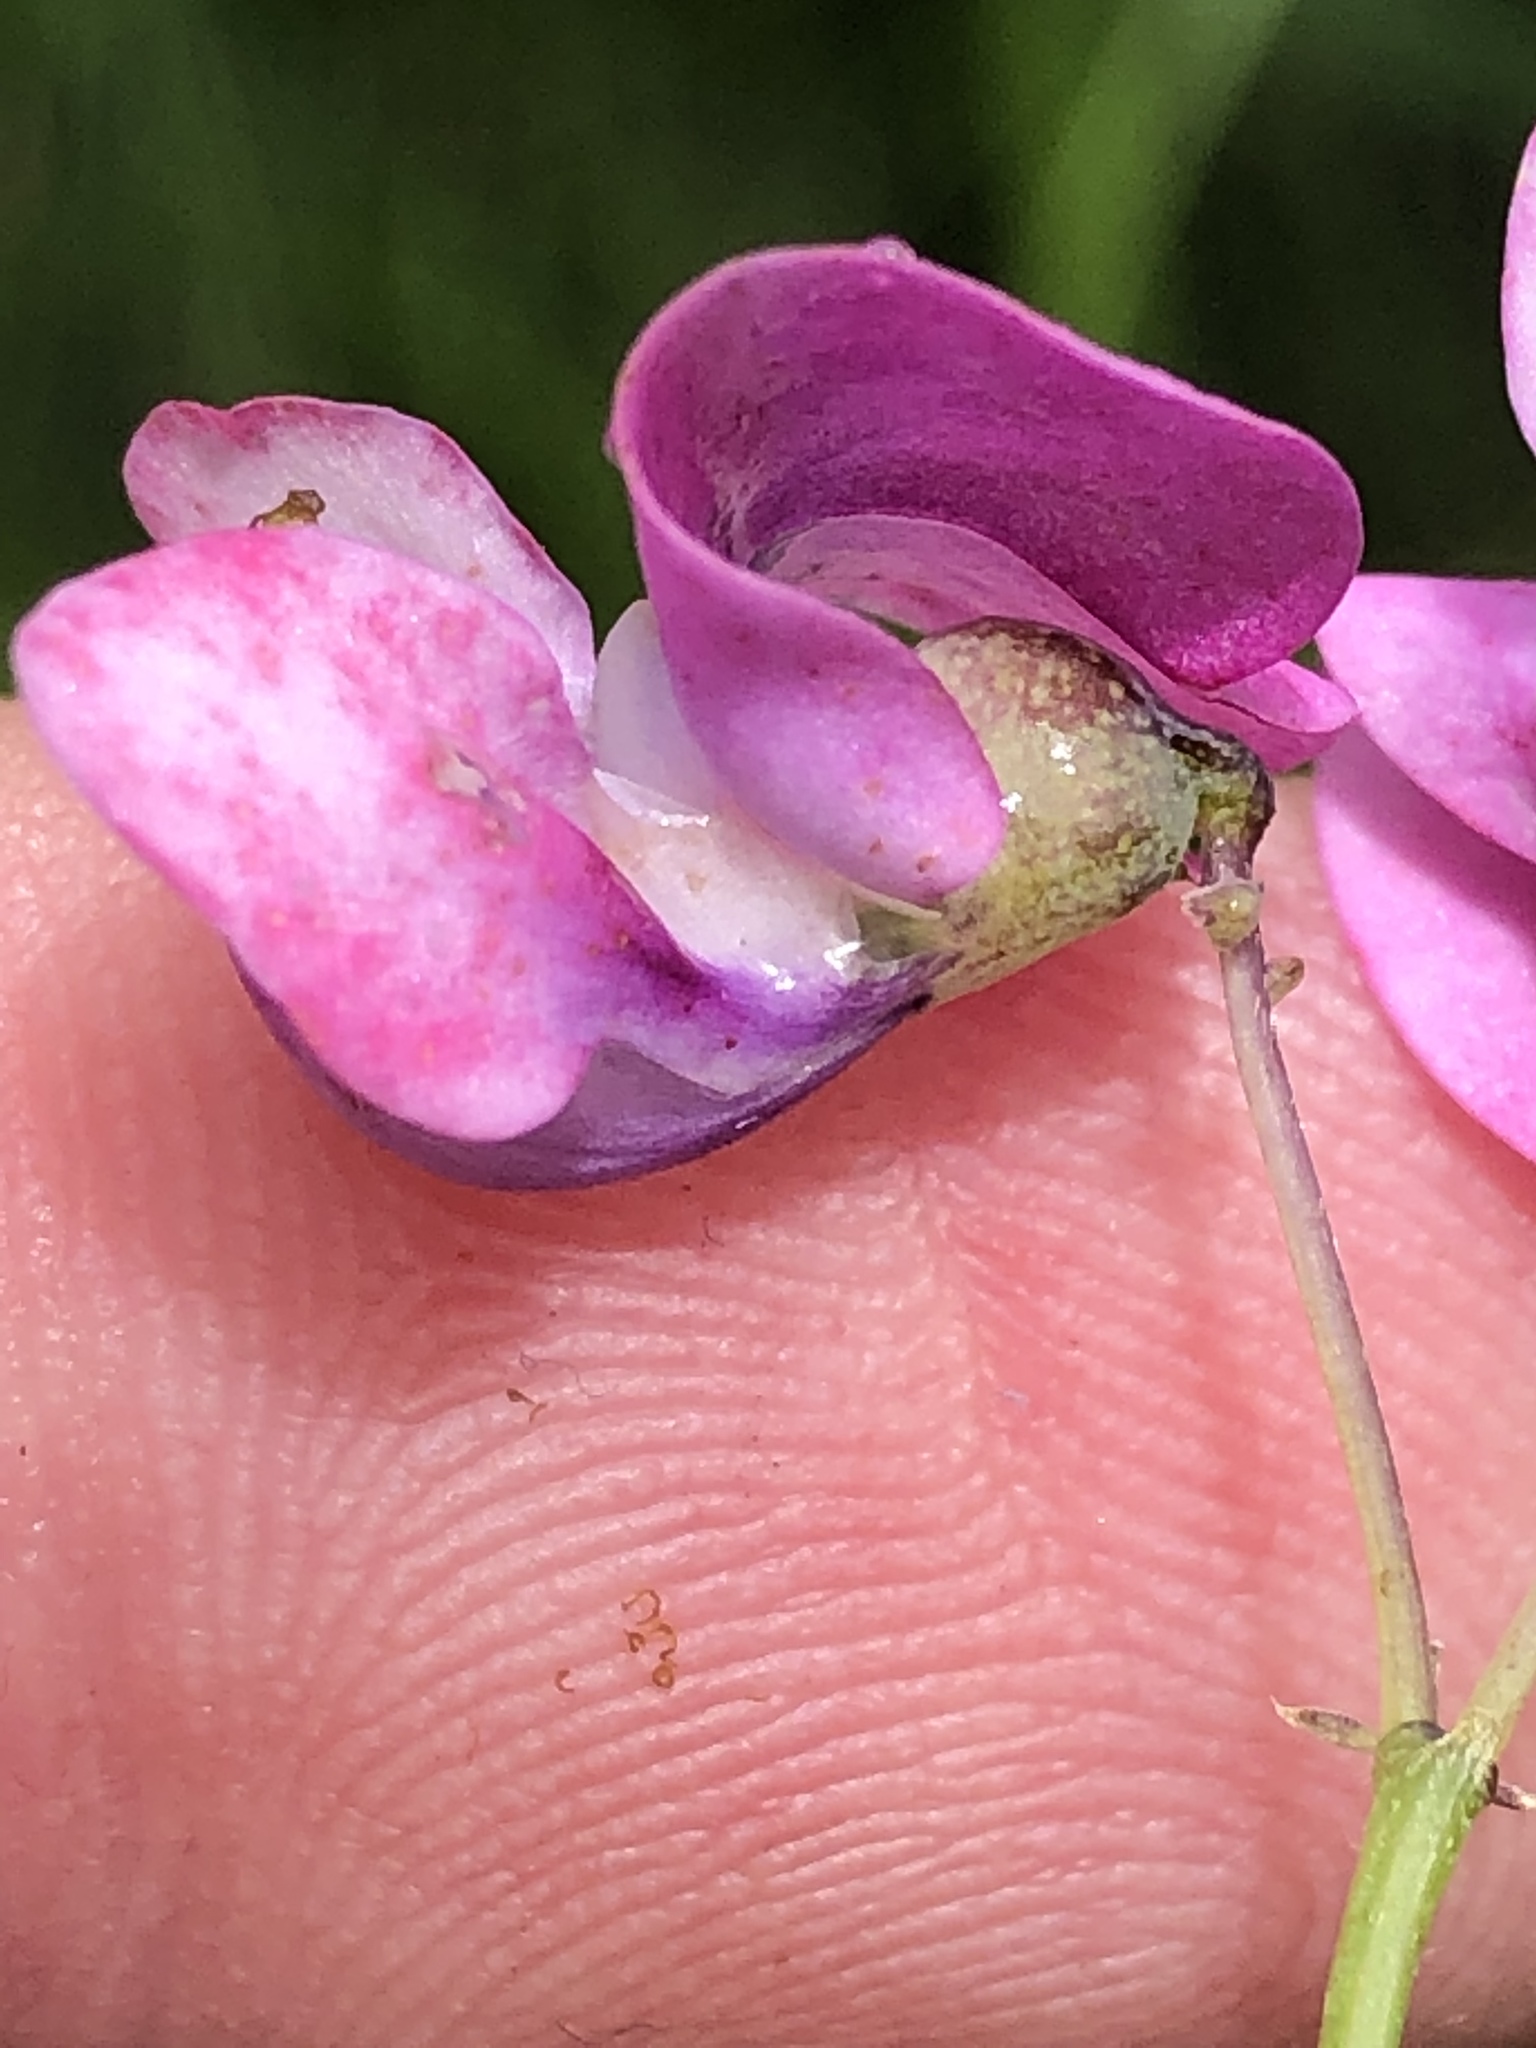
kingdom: Plantae
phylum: Tracheophyta
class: Magnoliopsida
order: Fabales
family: Fabaceae
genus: Dipogon
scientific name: Dipogon lignosus
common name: Okie bean
